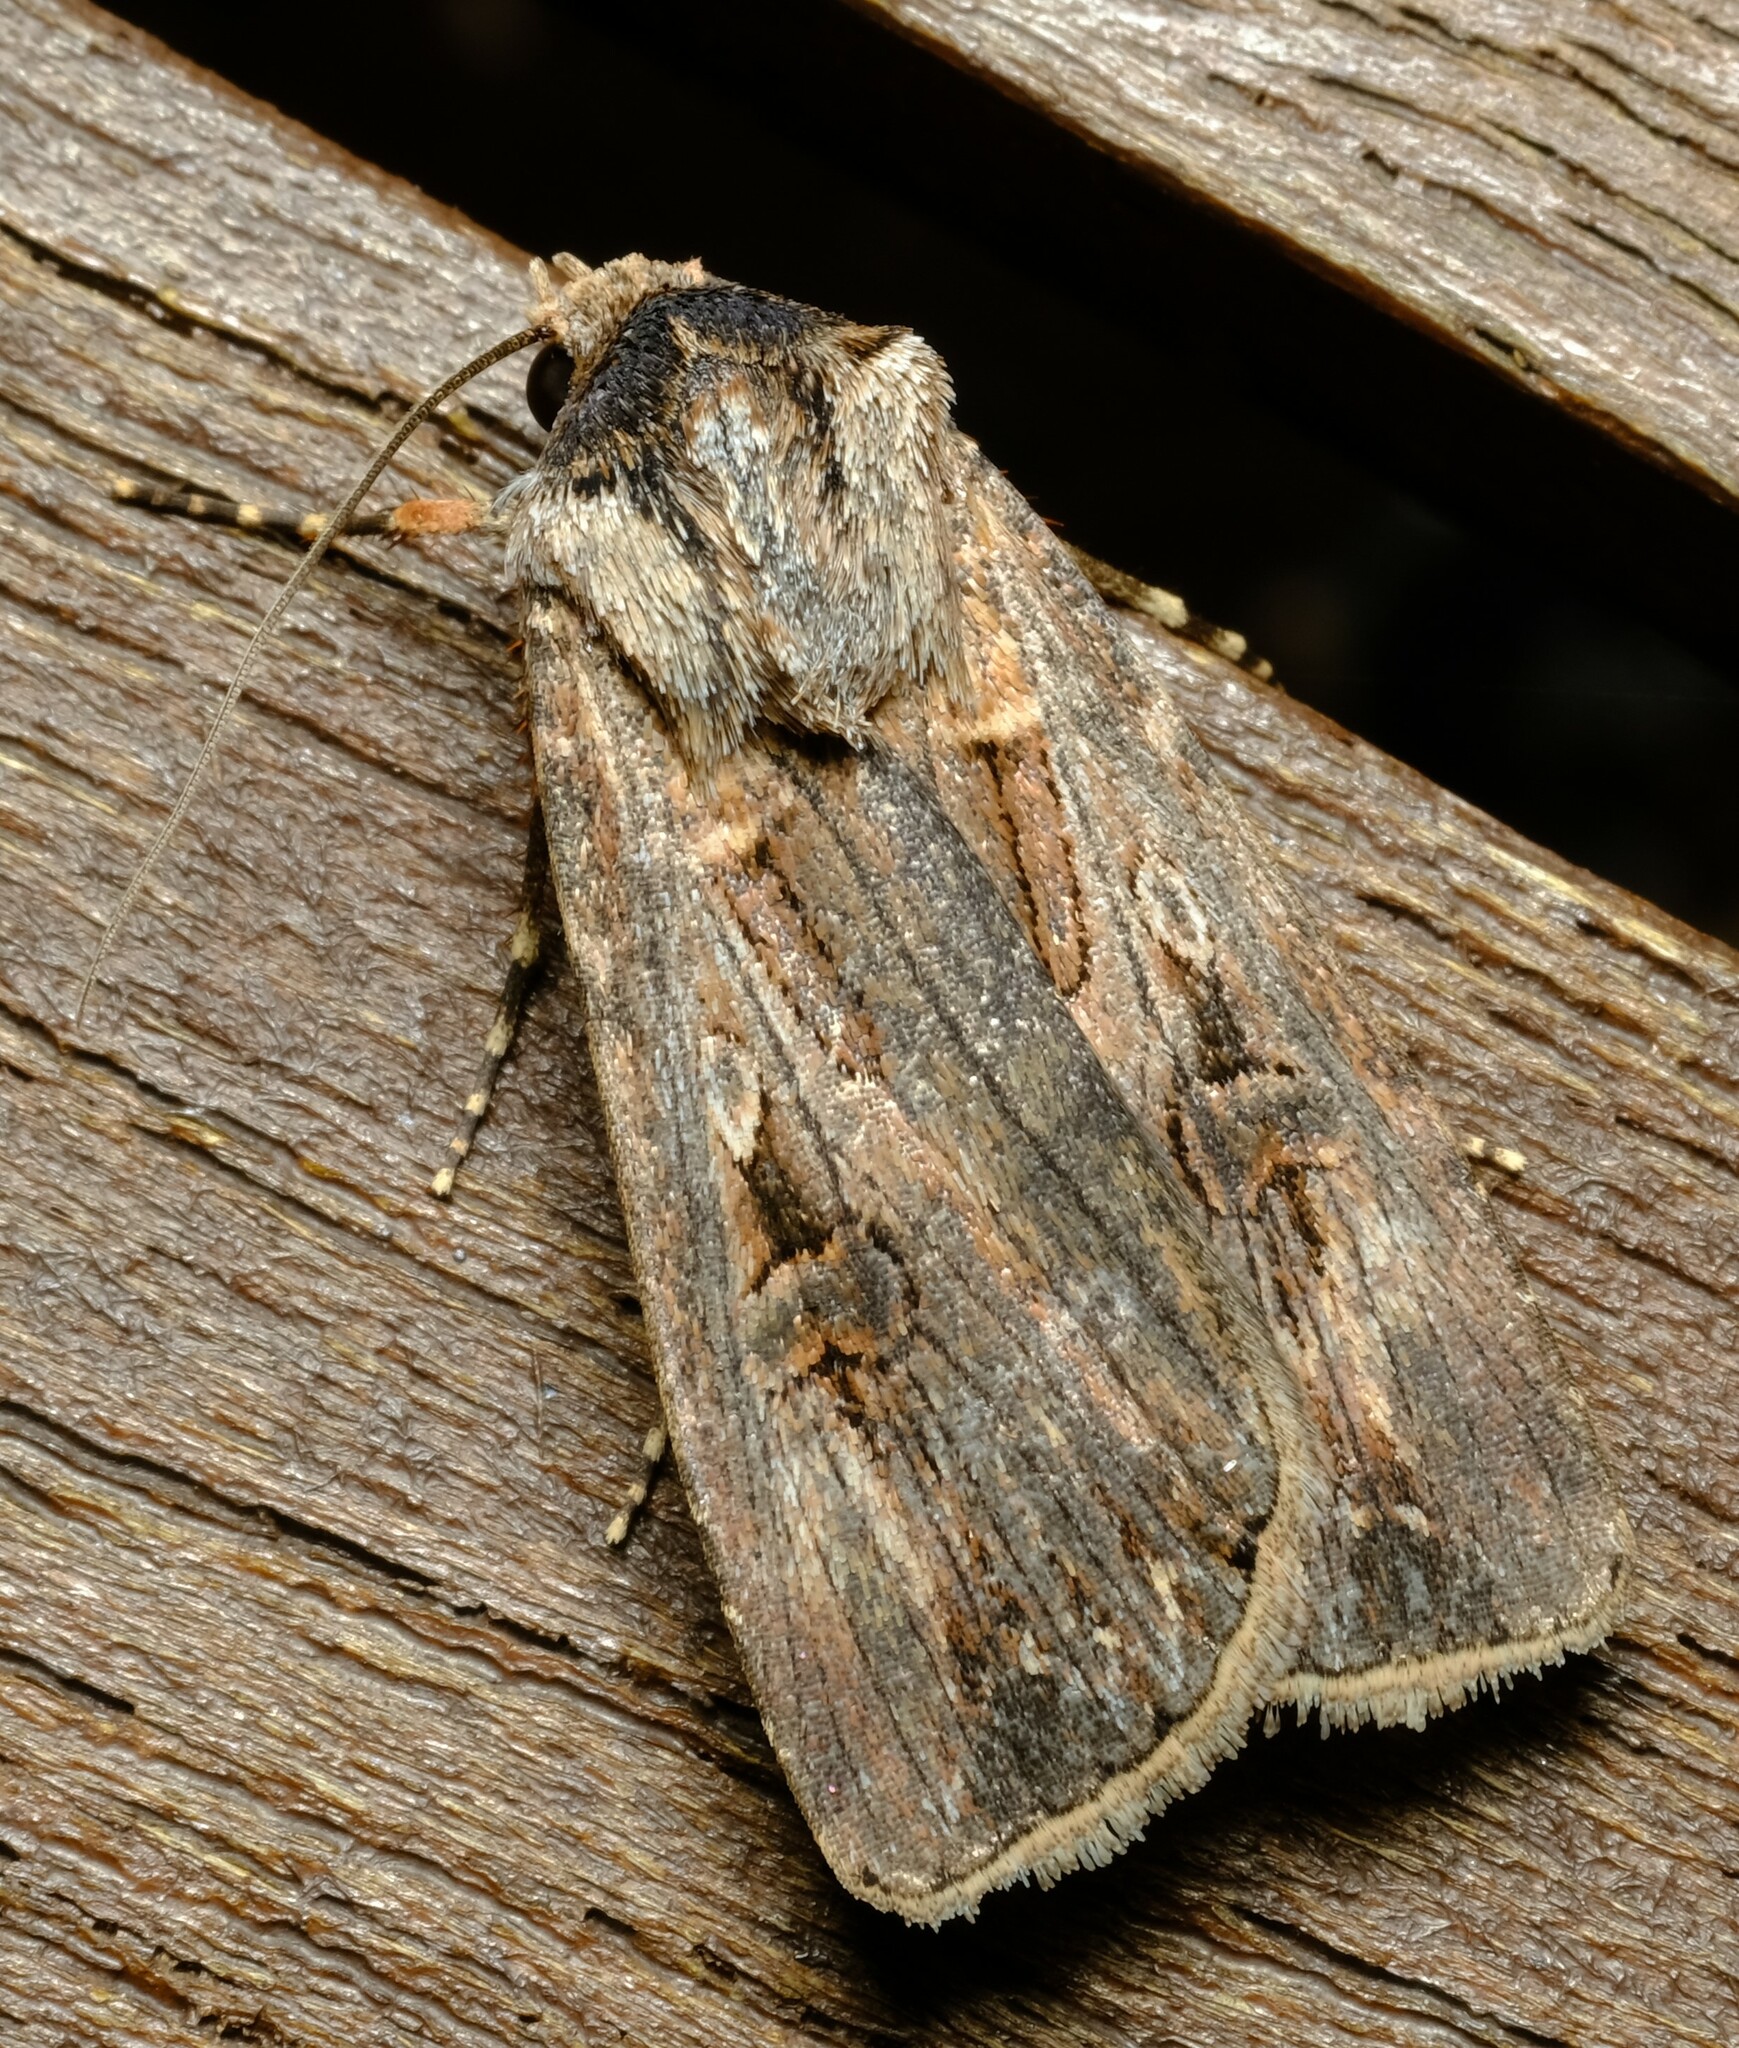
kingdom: Animalia
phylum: Arthropoda
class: Insecta
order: Lepidoptera
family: Noctuidae
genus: Agrotis
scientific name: Agrotis munda
